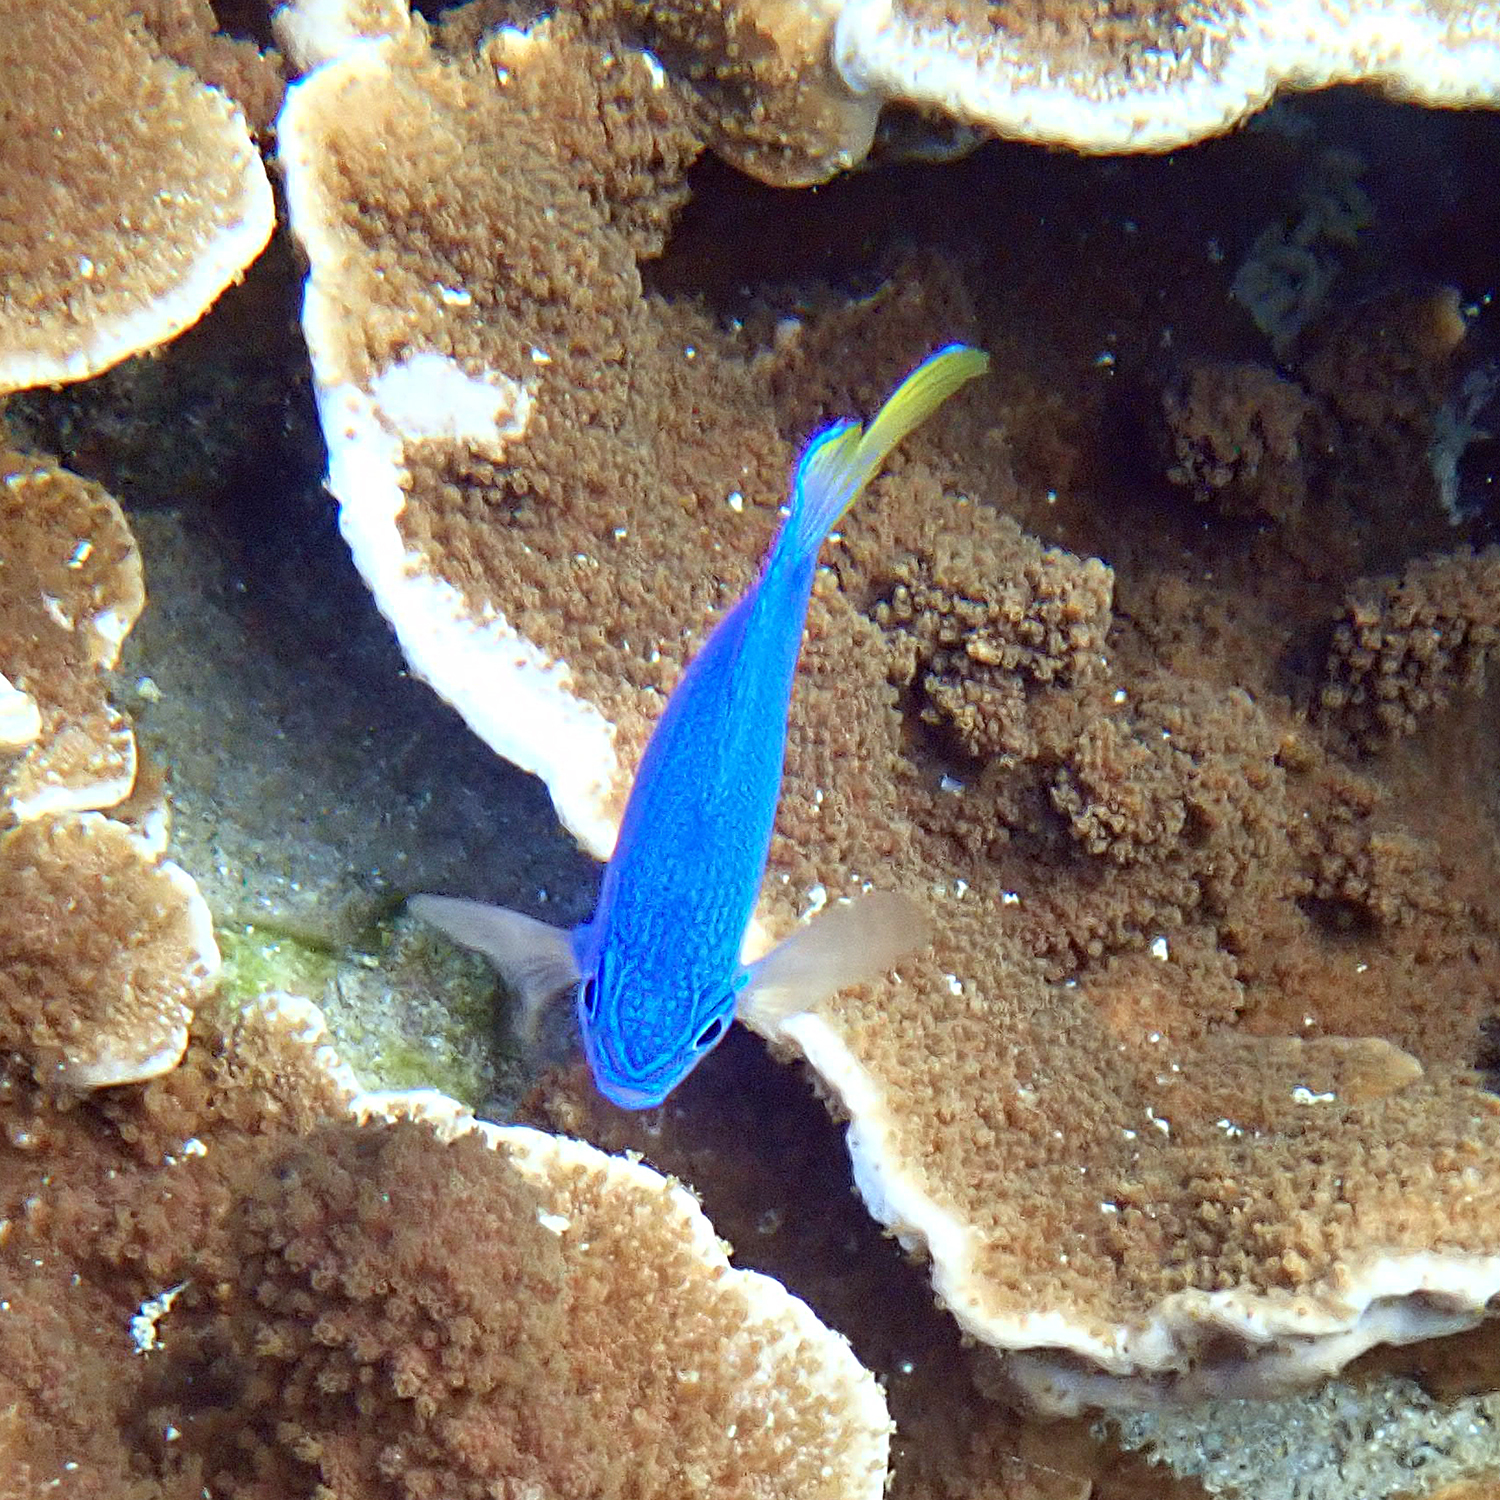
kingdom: Animalia
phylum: Chordata
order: Perciformes
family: Pomacentridae
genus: Pomacentrus
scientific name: Pomacentrus pavo
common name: Sapphire damsel
